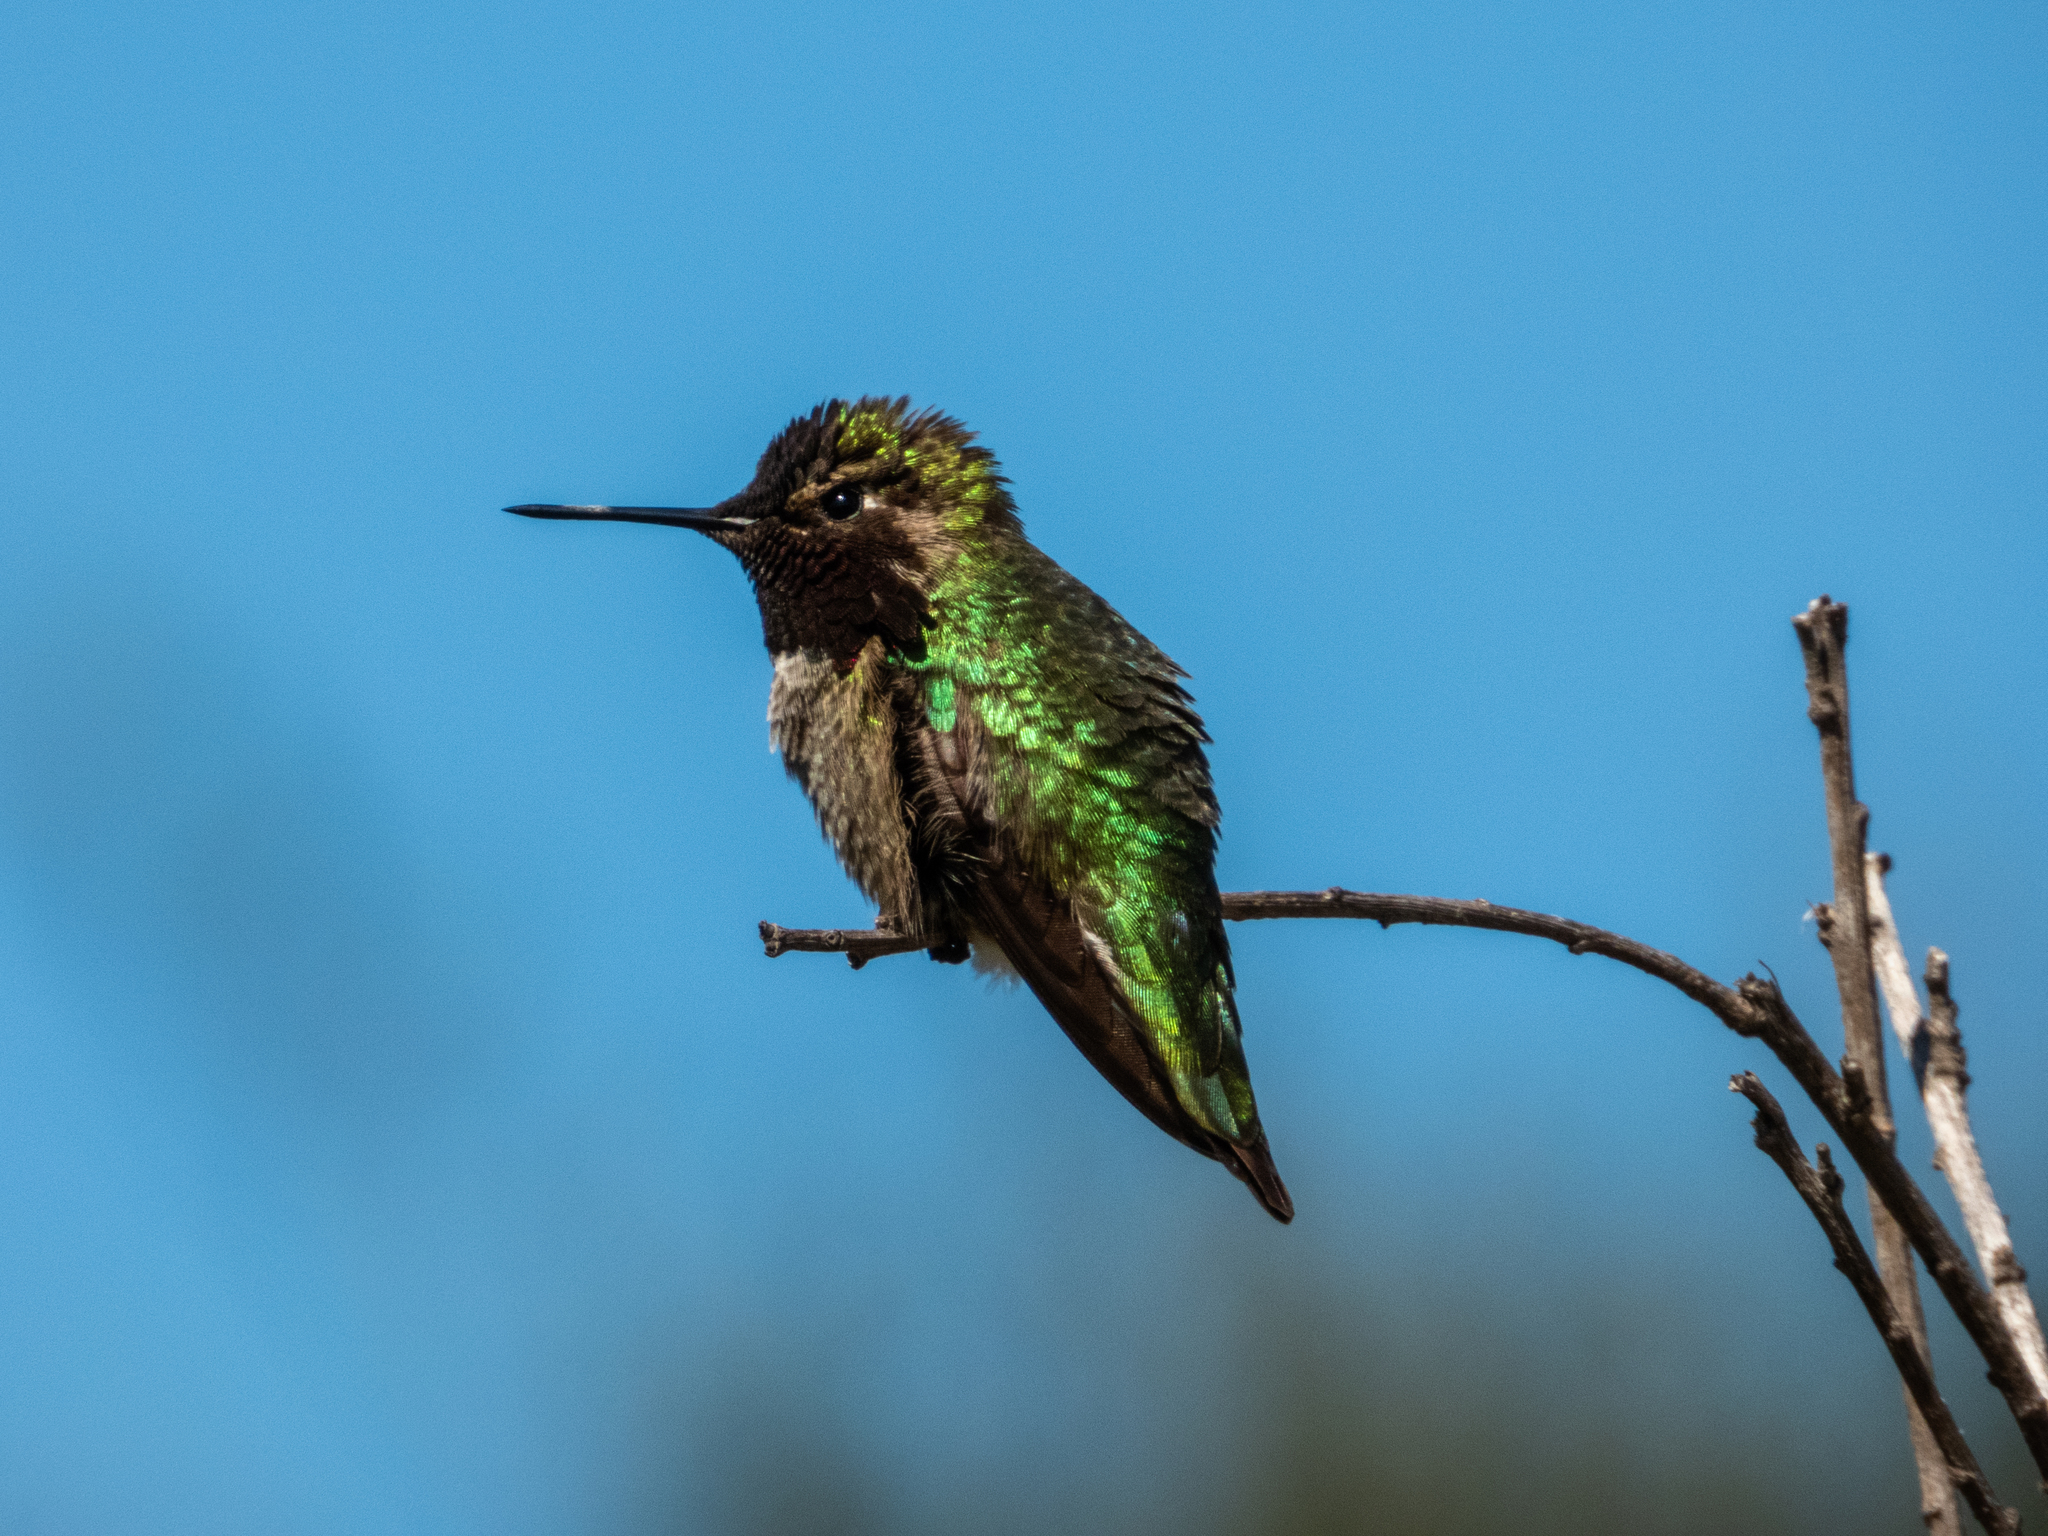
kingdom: Animalia
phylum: Chordata
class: Aves
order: Apodiformes
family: Trochilidae
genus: Calypte
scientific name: Calypte anna
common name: Anna's hummingbird
